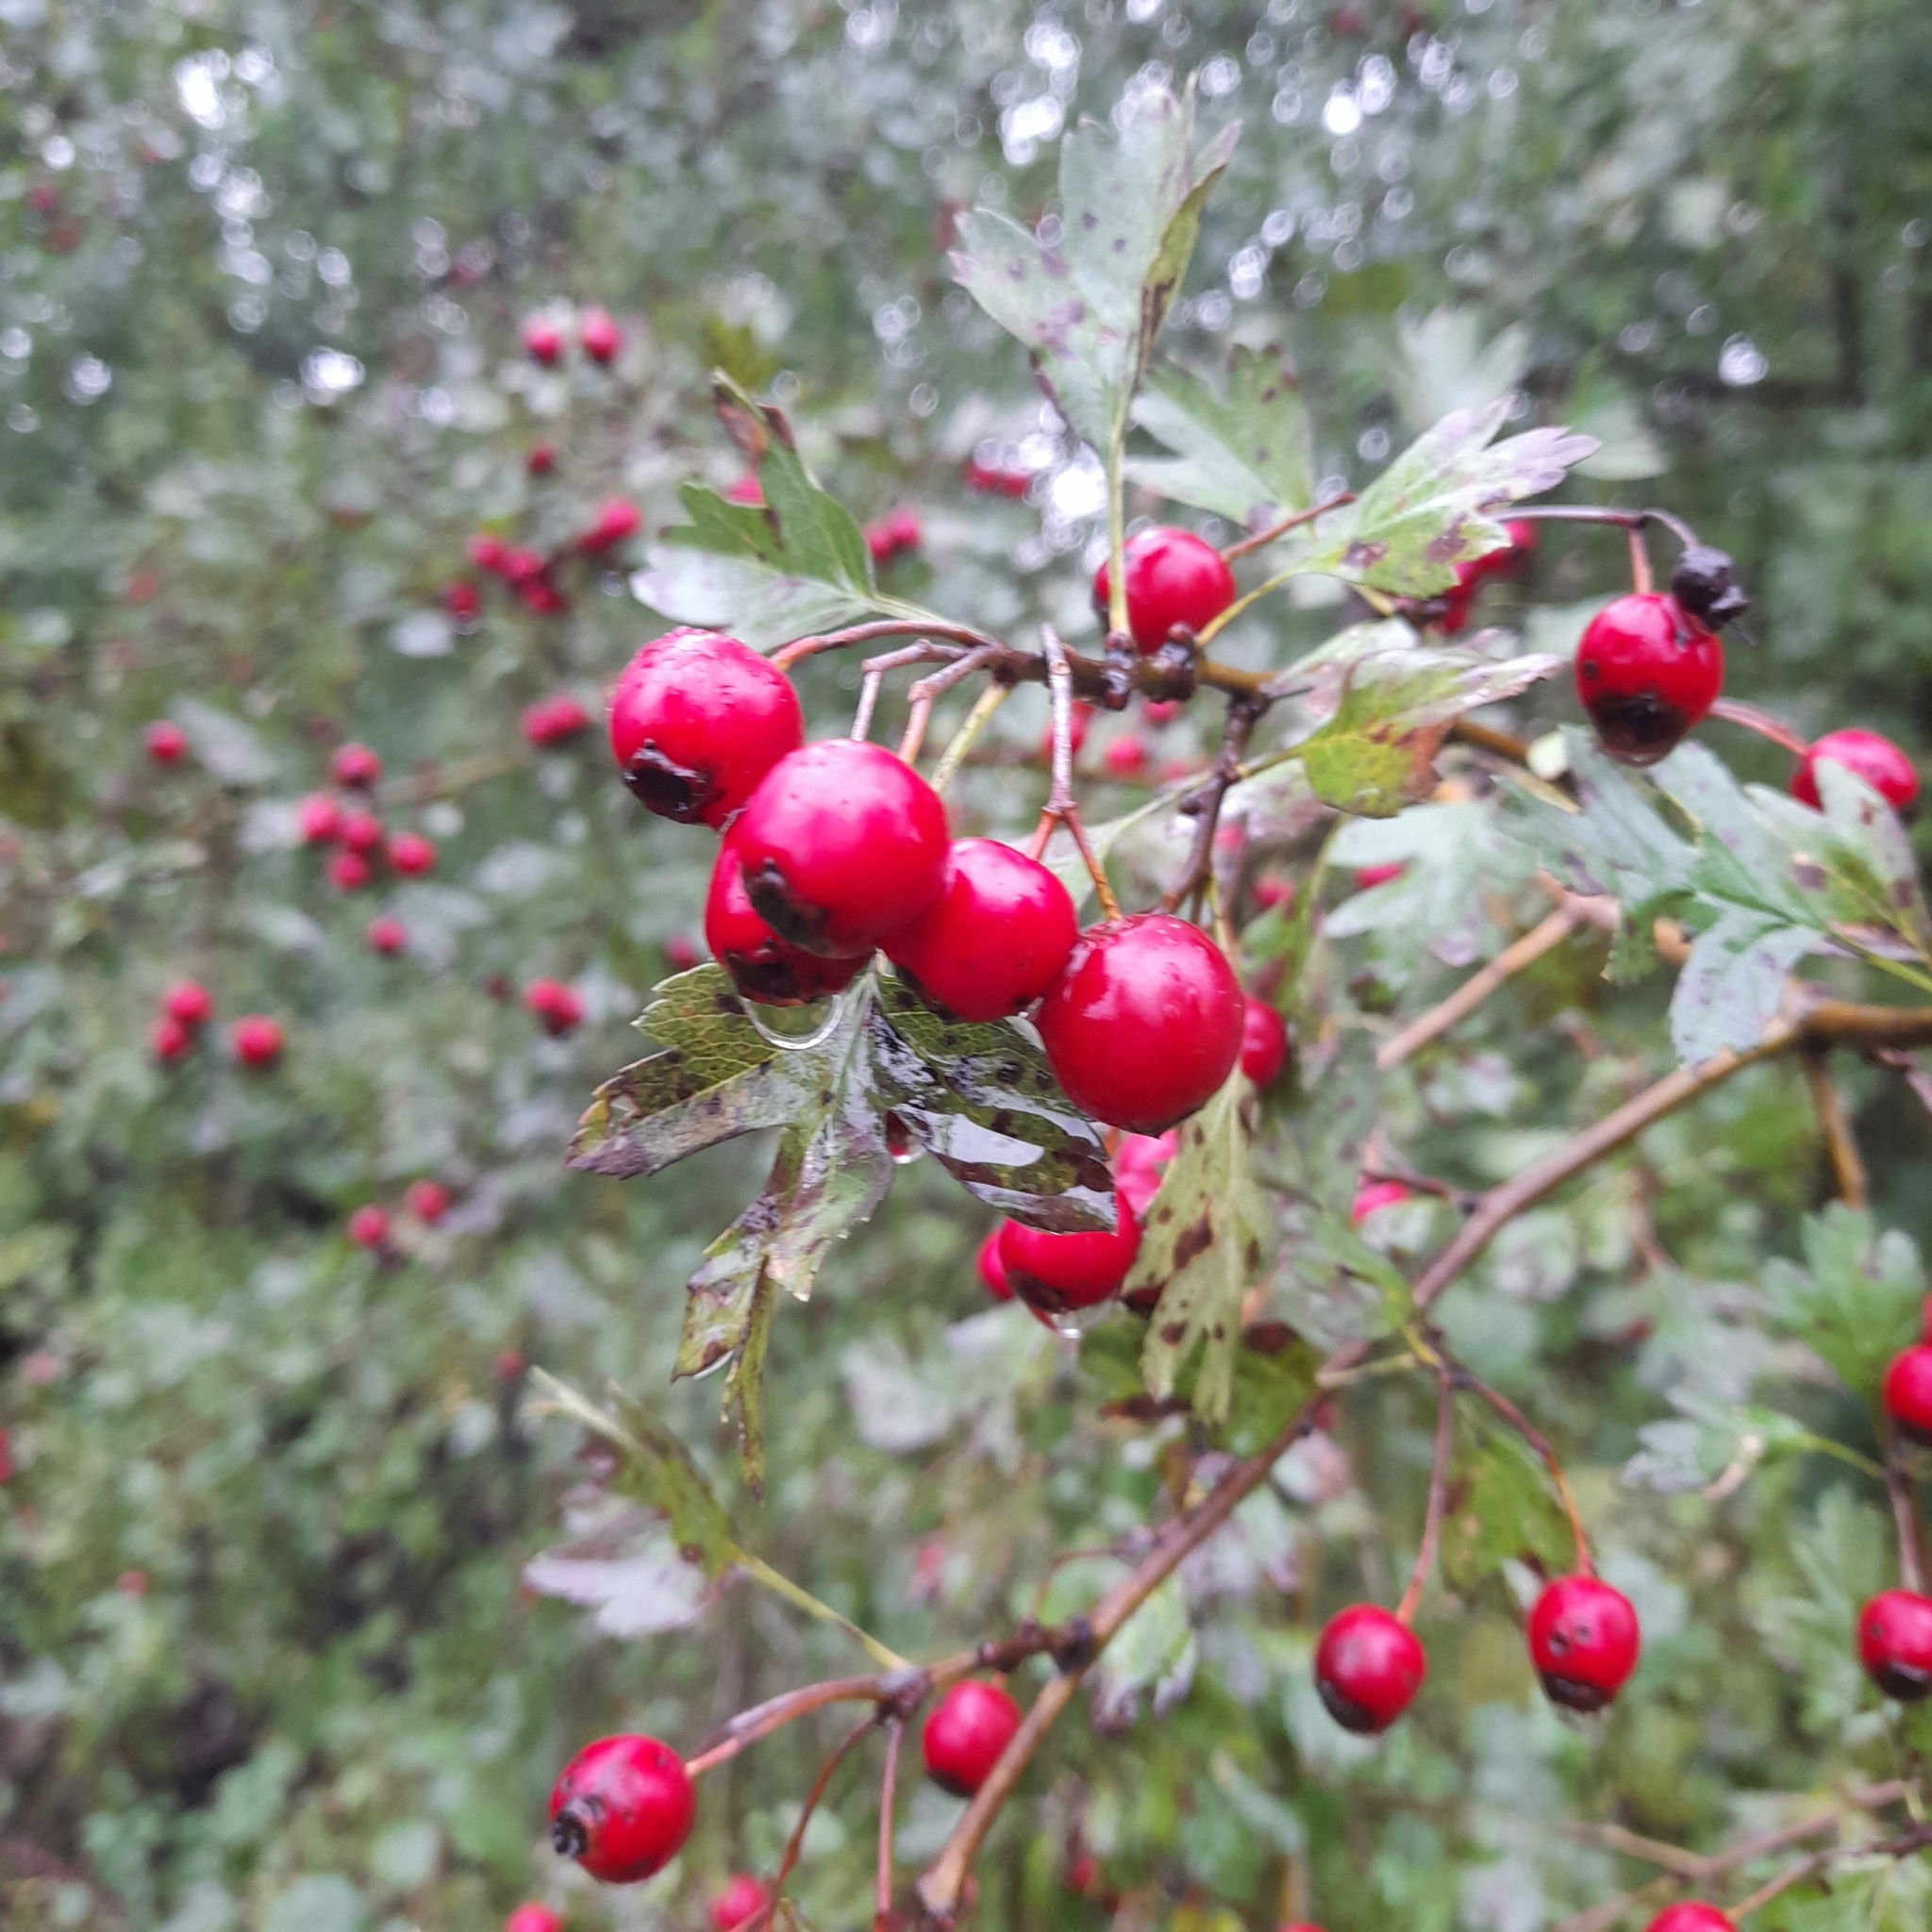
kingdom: Plantae
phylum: Tracheophyta
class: Magnoliopsida
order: Rosales
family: Rosaceae
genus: Crataegus
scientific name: Crataegus monogyna
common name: Hawthorn
